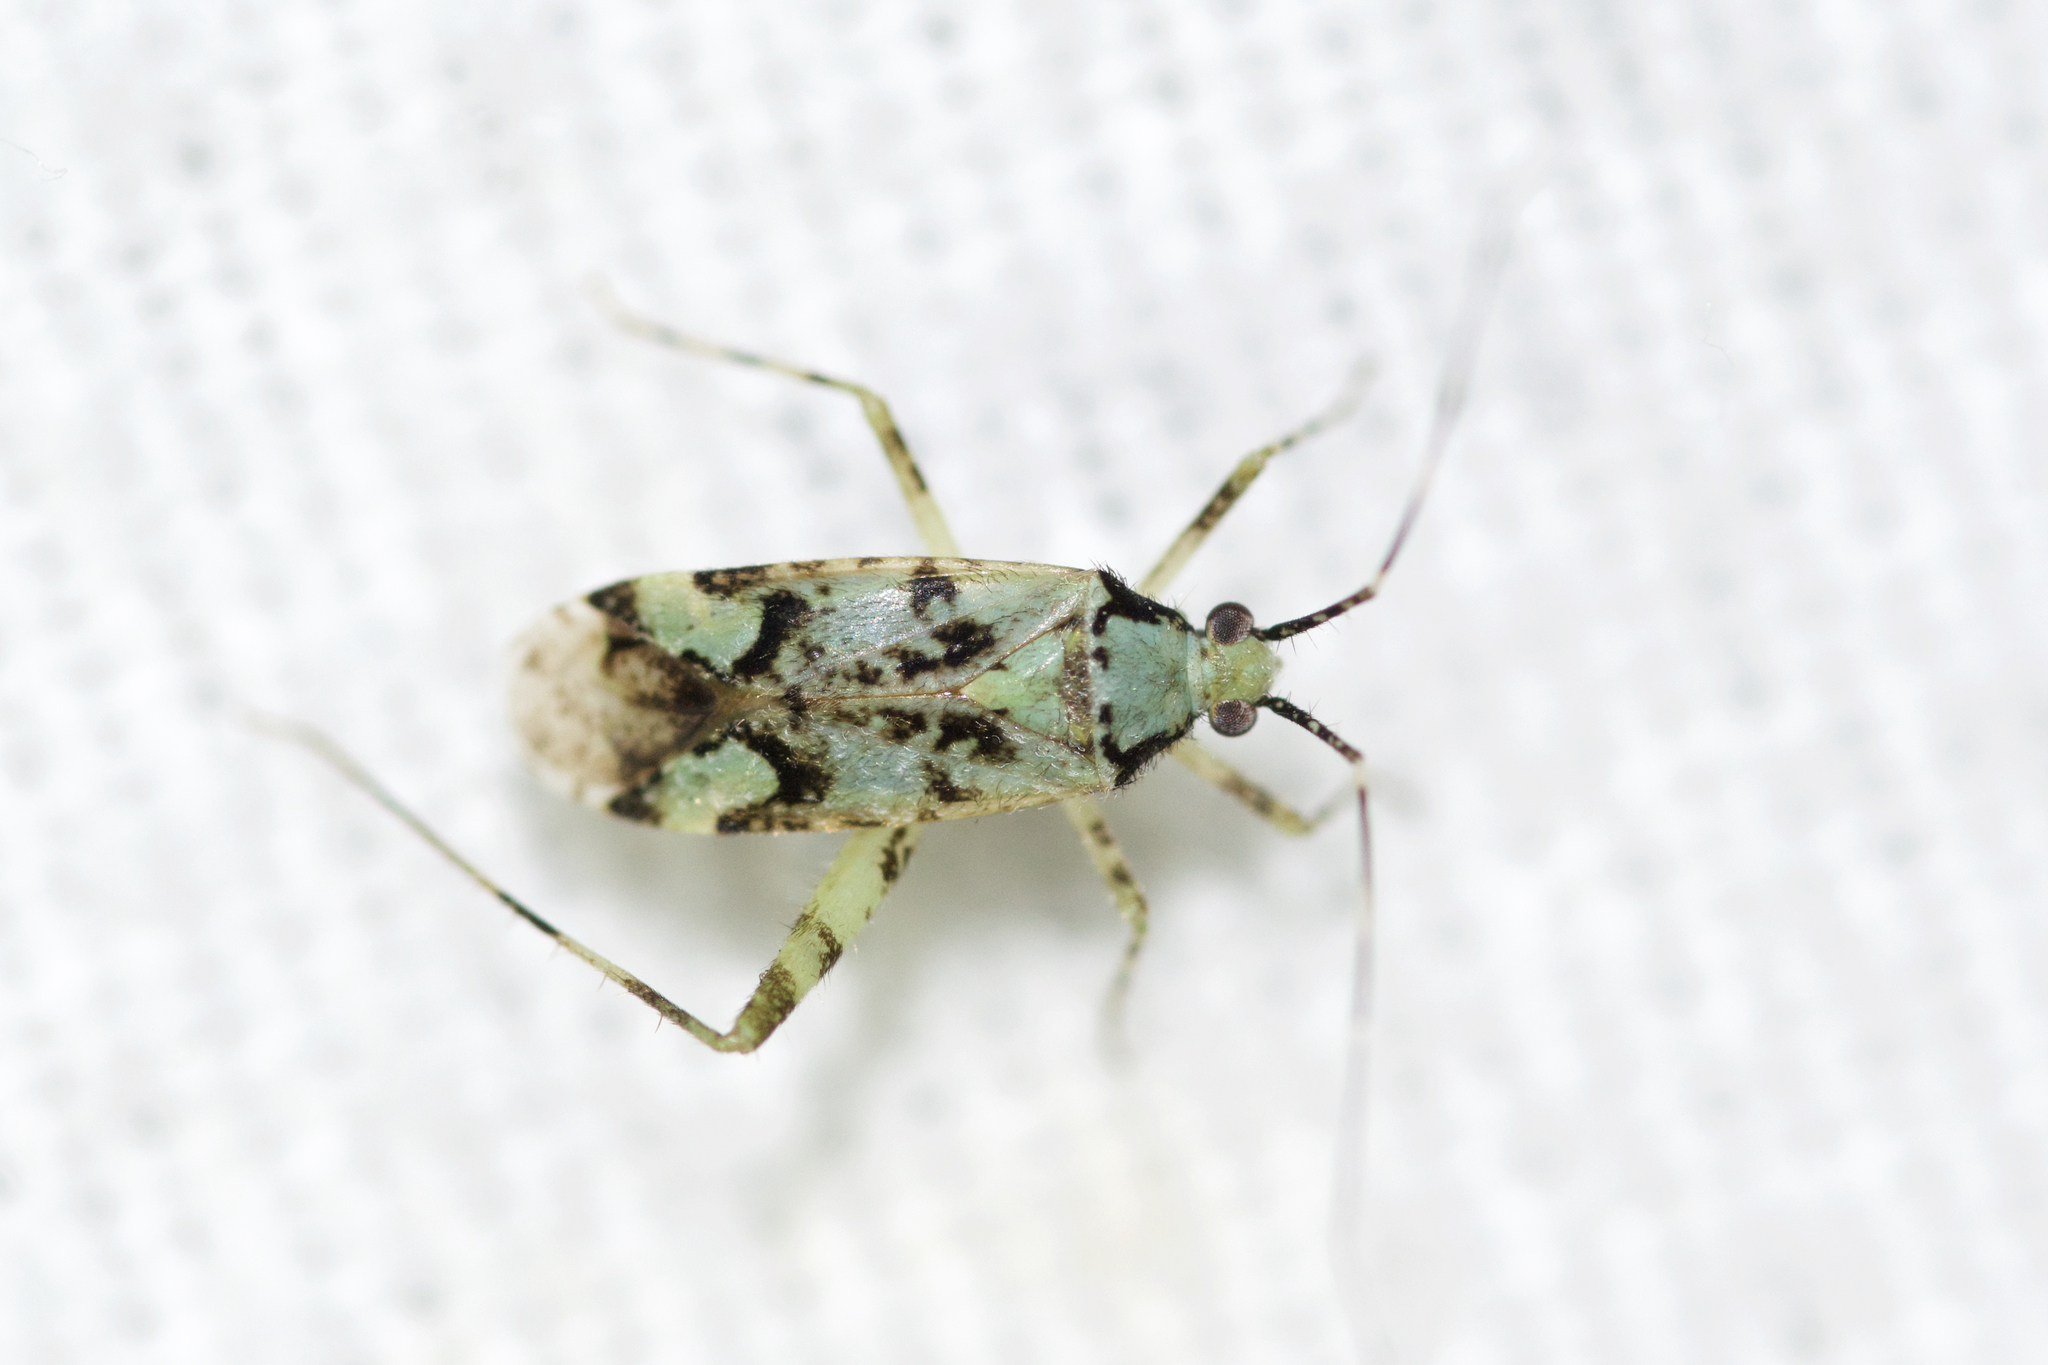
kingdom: Animalia
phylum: Arthropoda
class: Insecta
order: Hemiptera
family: Miridae
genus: Phytocoris
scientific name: Phytocoris tiliae
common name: Plant bug
